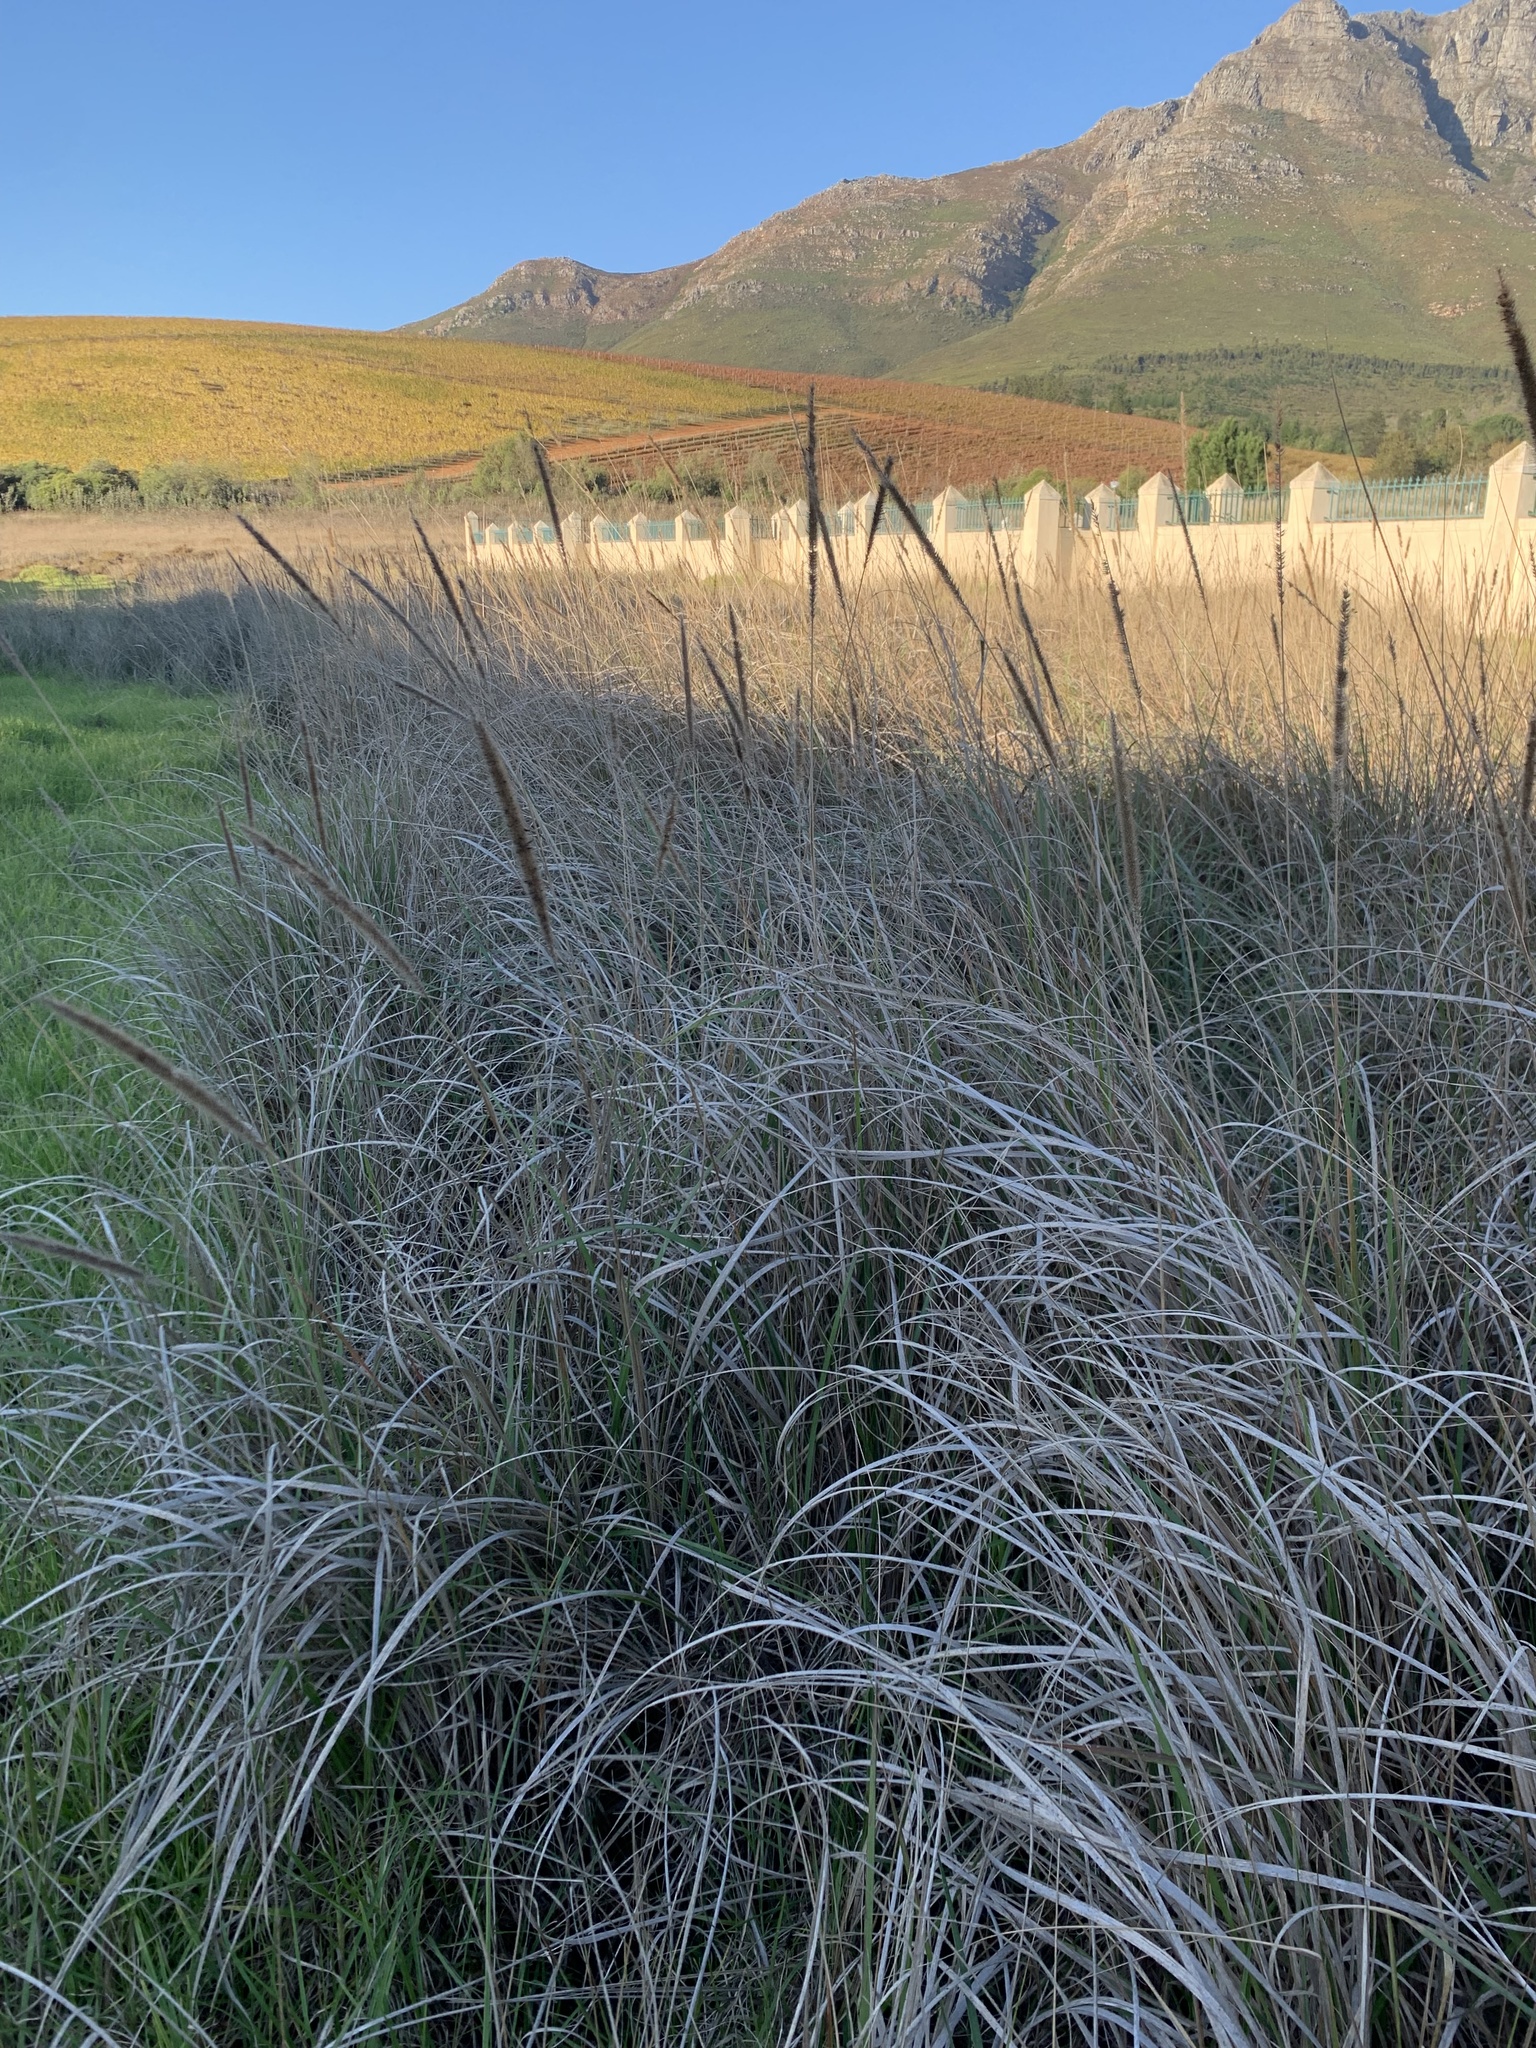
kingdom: Plantae
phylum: Tracheophyta
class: Liliopsida
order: Poales
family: Poaceae
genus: Cenchrus
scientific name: Cenchrus caudatus
